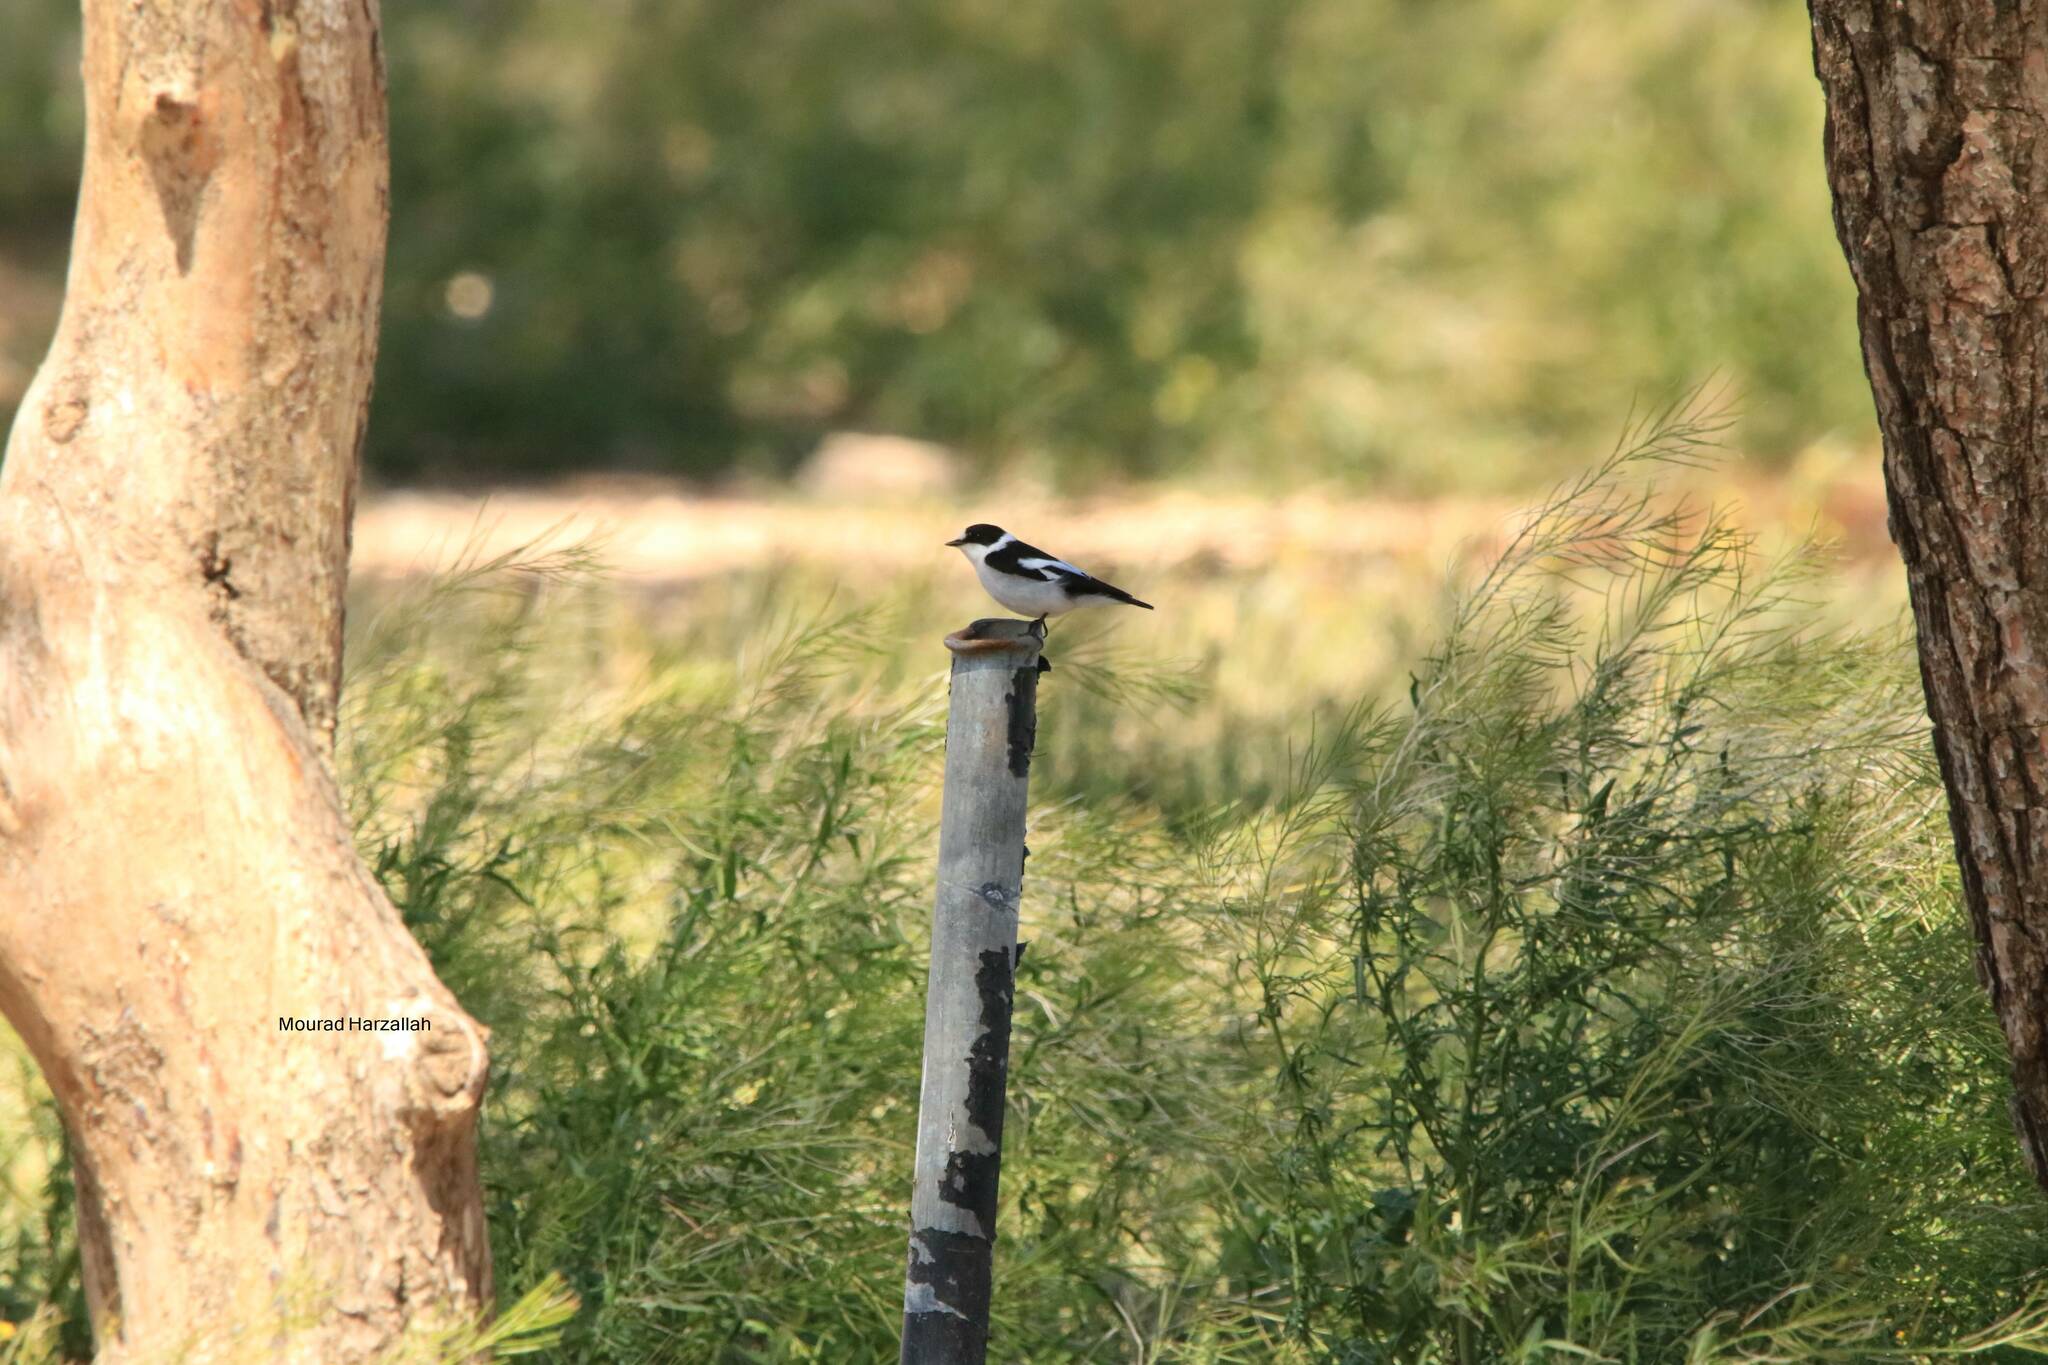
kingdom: Animalia
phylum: Chordata
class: Aves
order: Passeriformes
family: Muscicapidae
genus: Ficedula
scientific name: Ficedula albicollis
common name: Collared flycatcher
